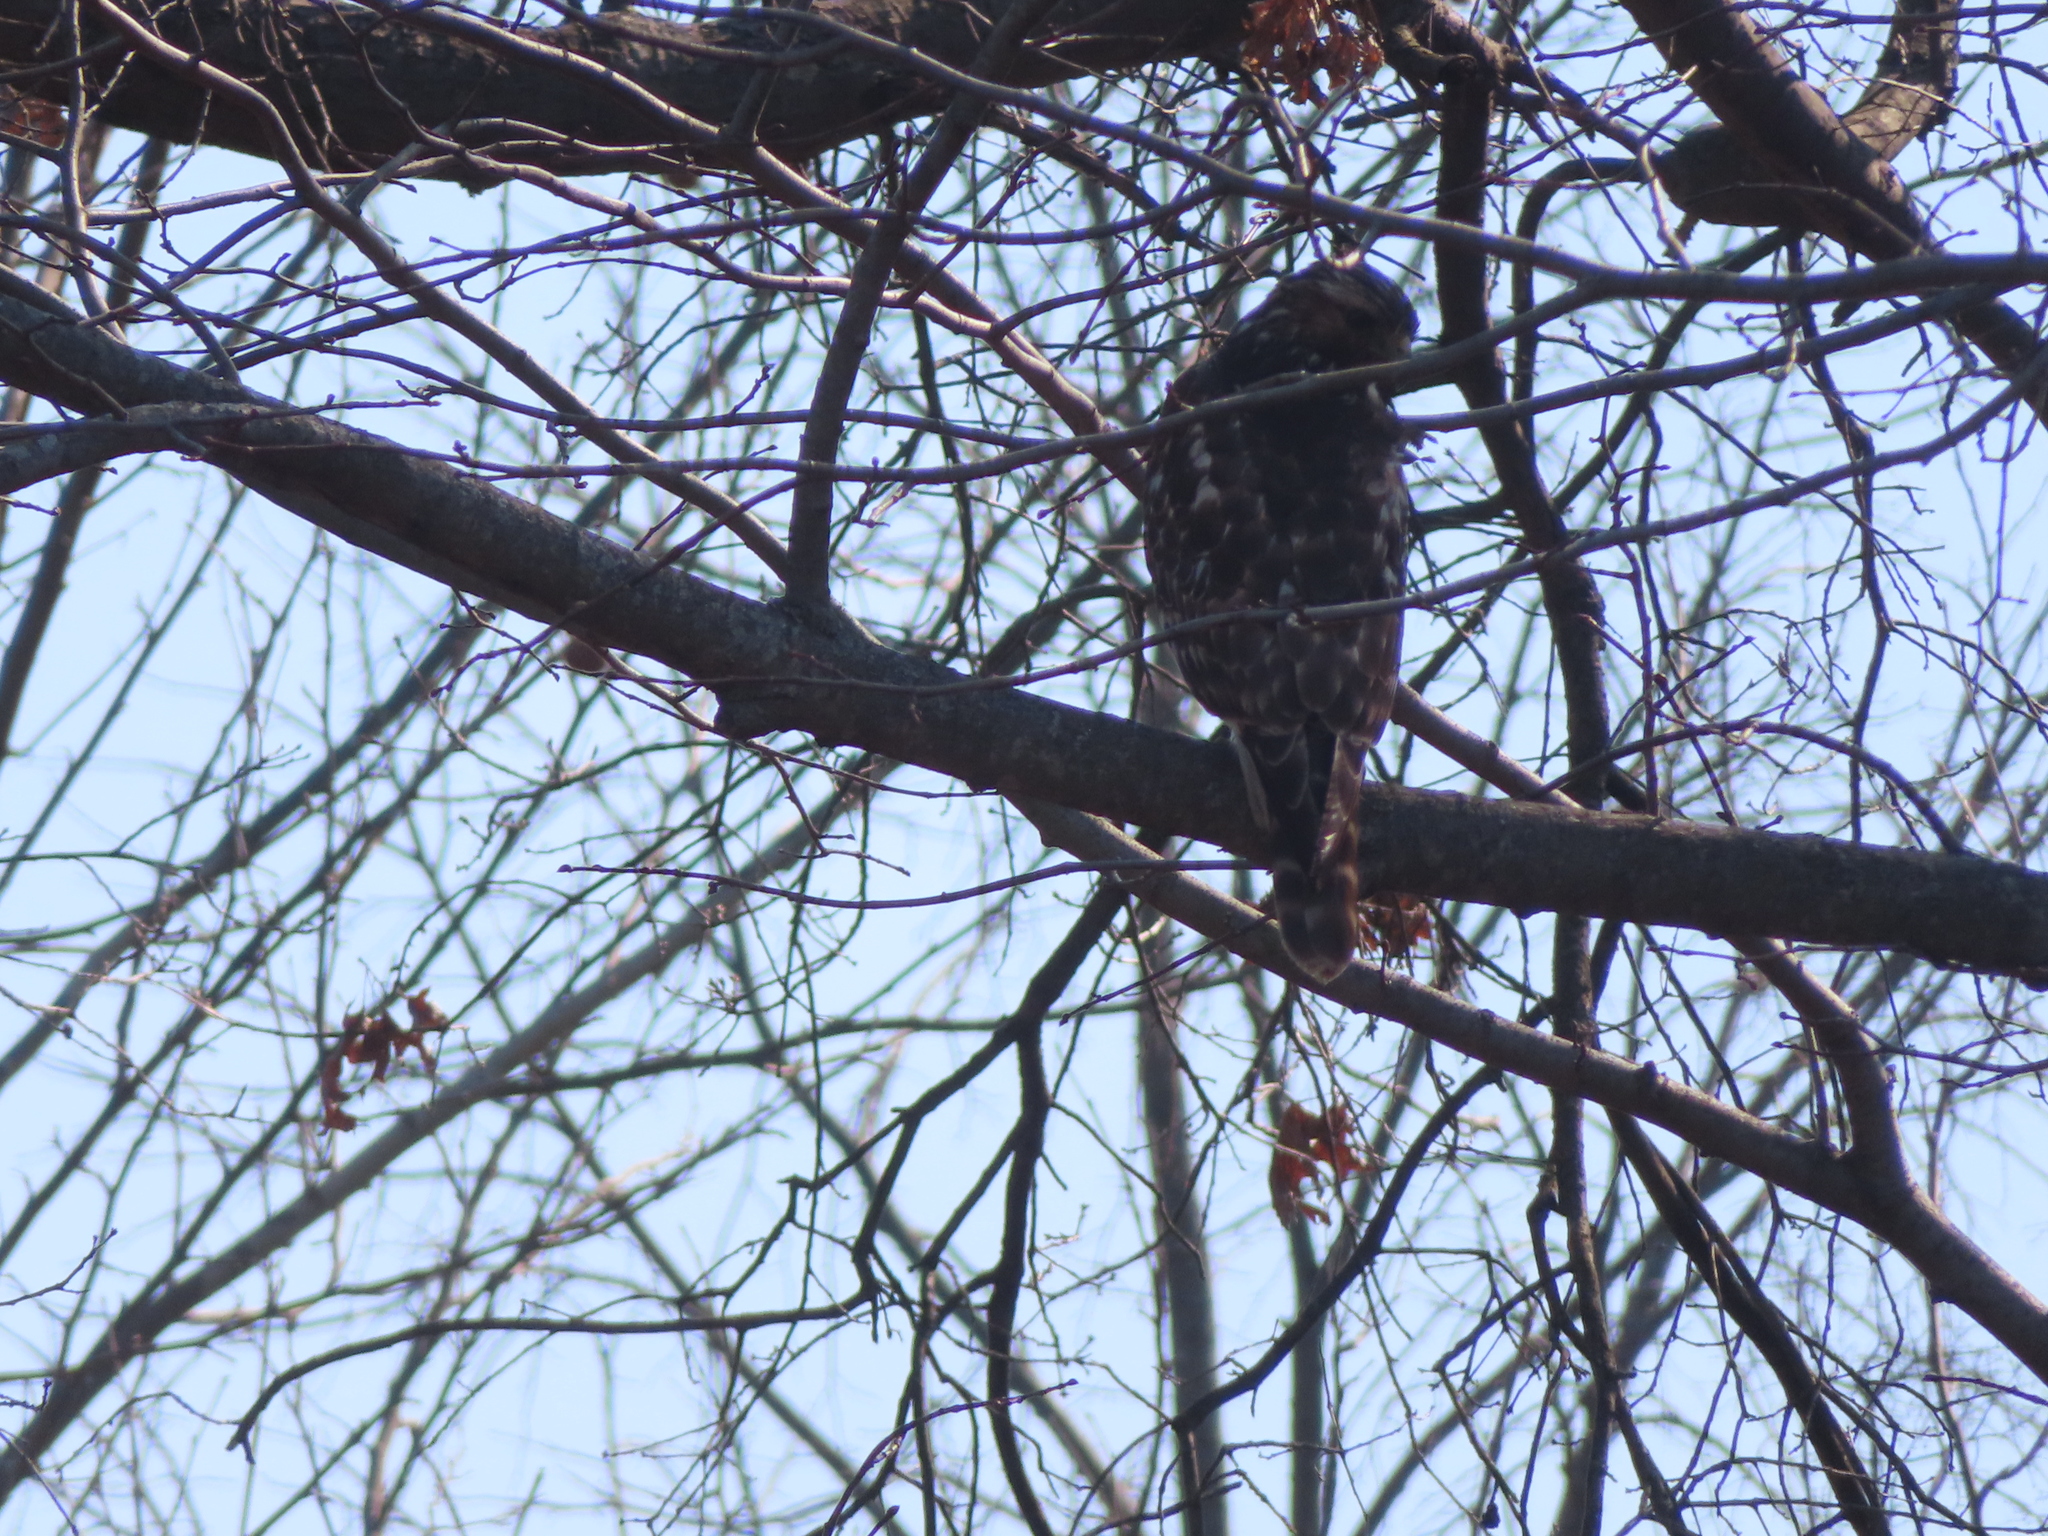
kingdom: Animalia
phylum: Chordata
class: Aves
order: Accipitriformes
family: Accipitridae
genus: Buteo
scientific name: Buteo lineatus
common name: Red-shouldered hawk
